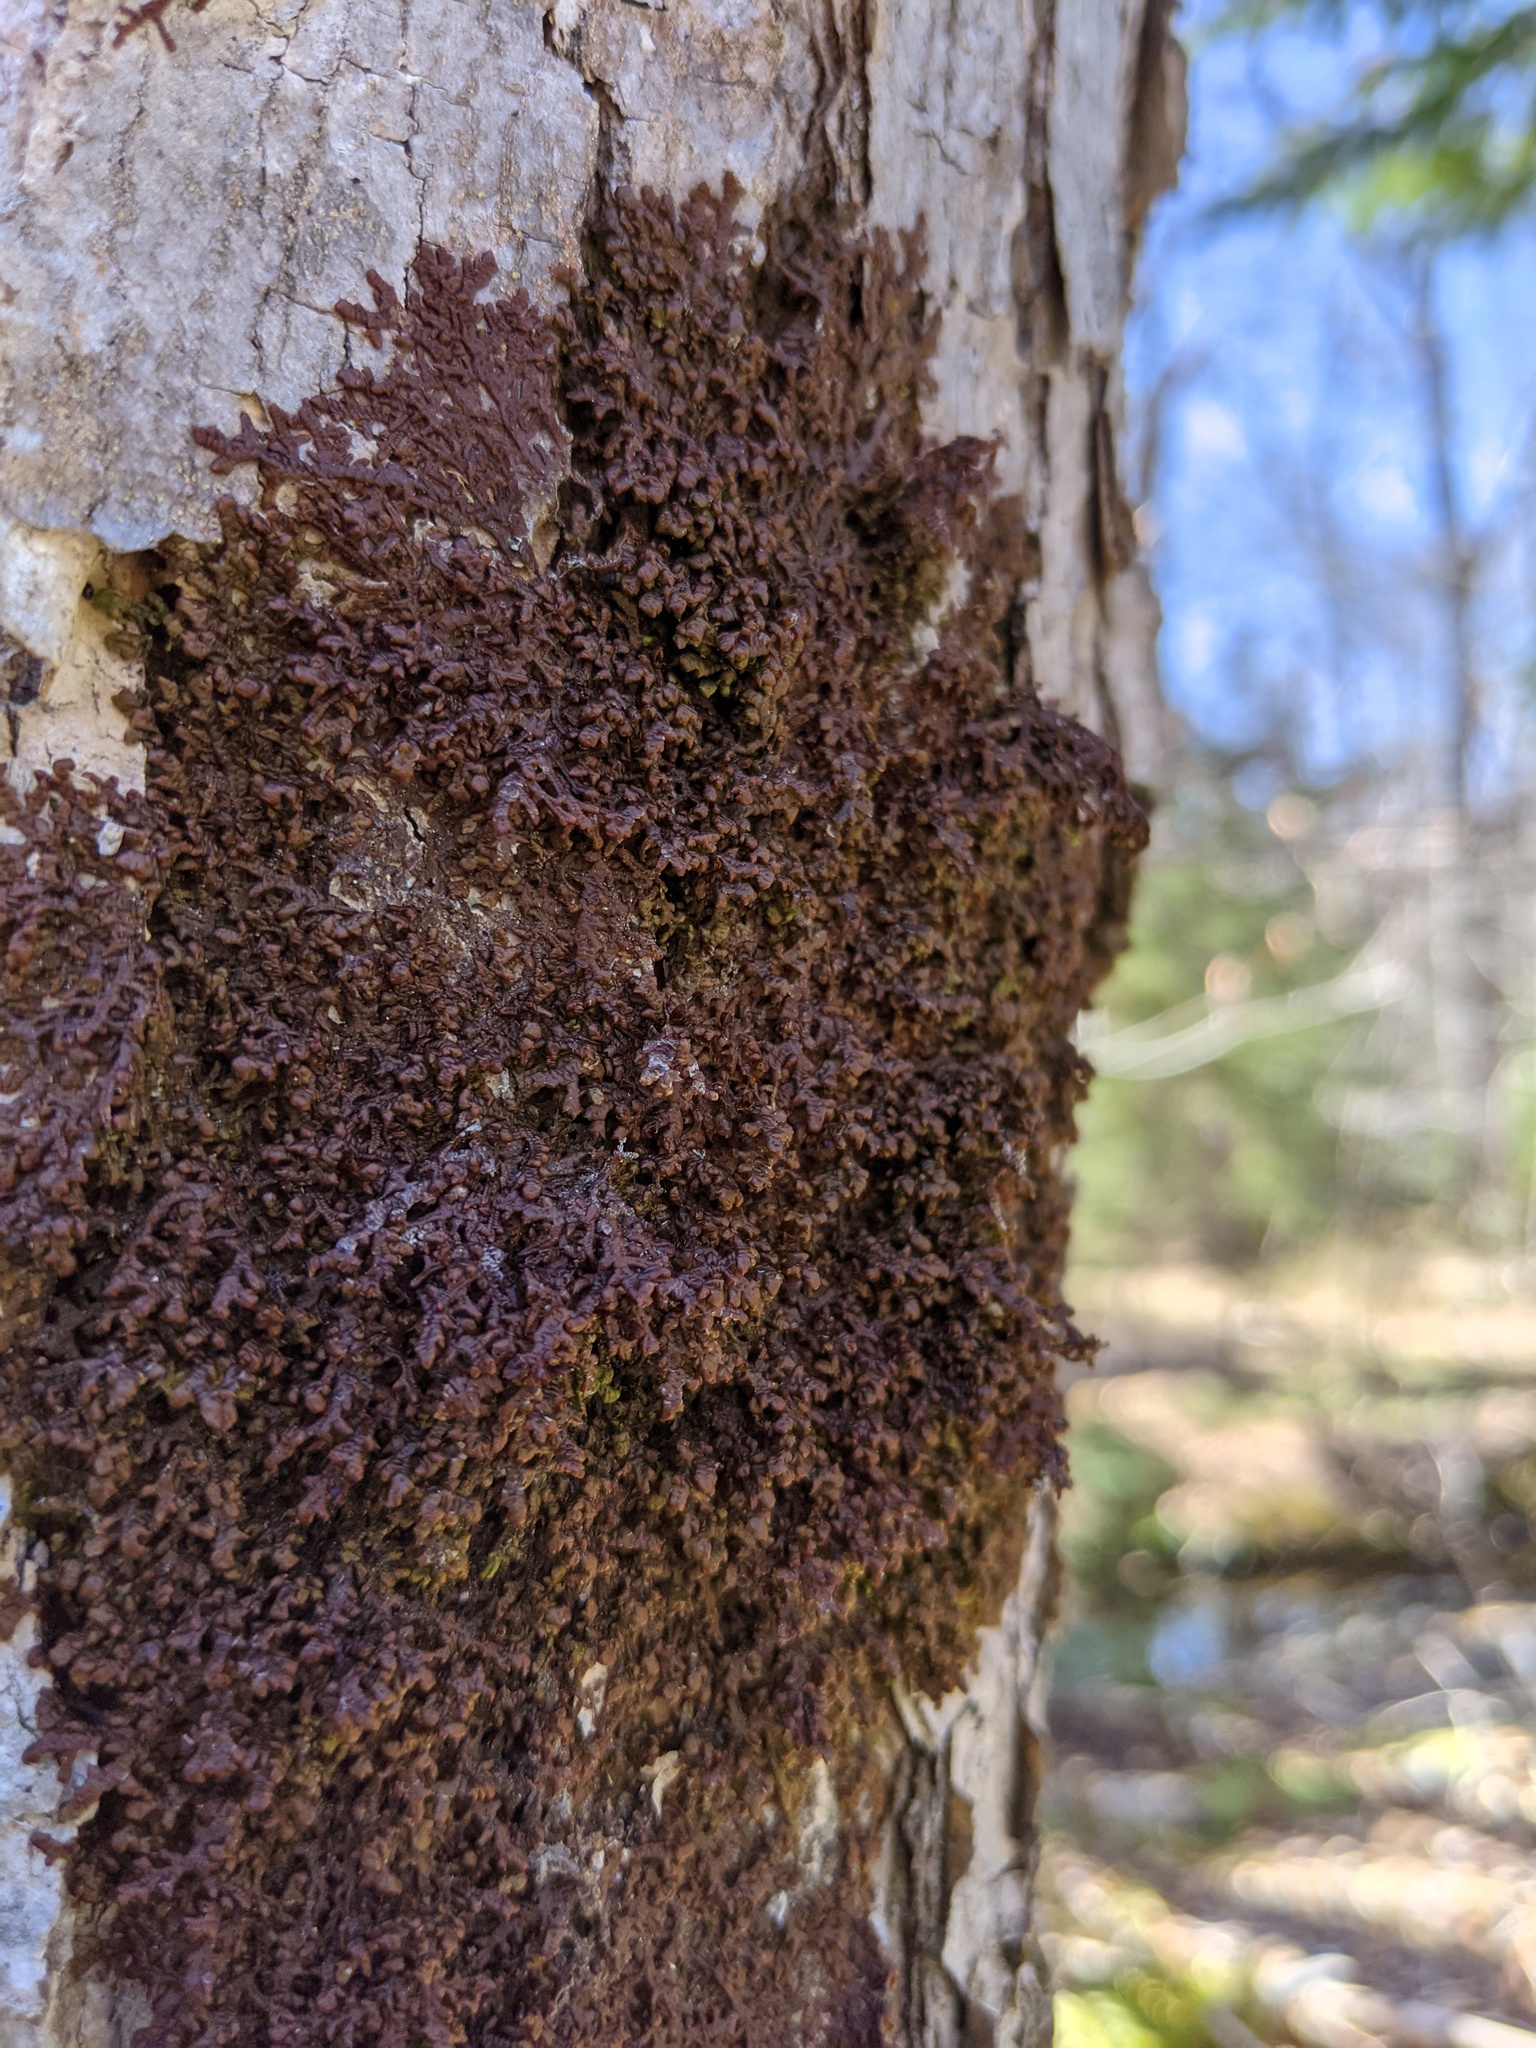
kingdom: Plantae
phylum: Marchantiophyta
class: Jungermanniopsida
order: Porellales
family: Frullaniaceae
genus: Frullania
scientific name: Frullania asagrayana
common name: Asa gray s scalewort
